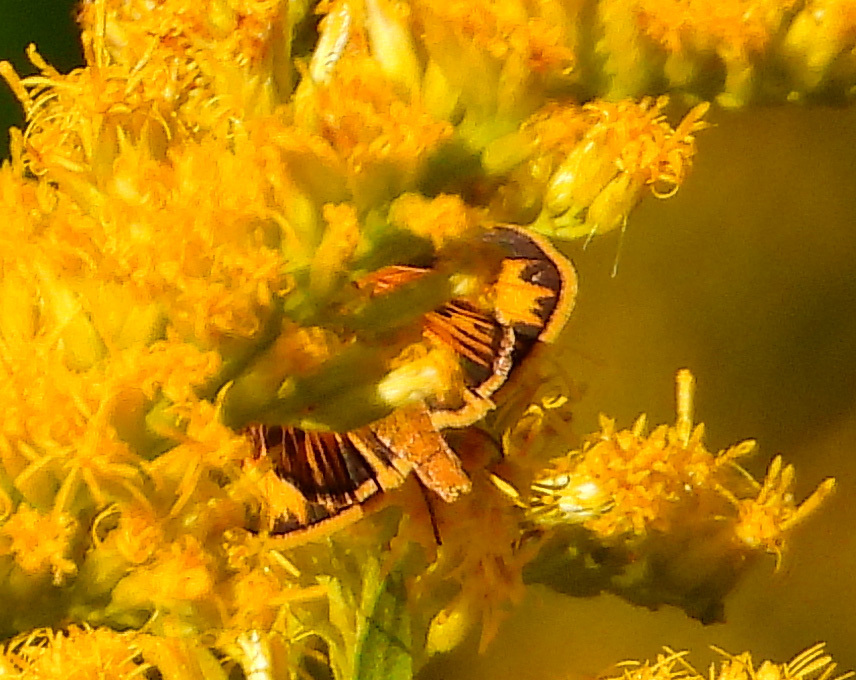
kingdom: Animalia
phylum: Arthropoda
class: Insecta
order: Lepidoptera
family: Hesperiidae
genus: Hylephila
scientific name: Hylephila phyleus
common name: Fiery skipper
